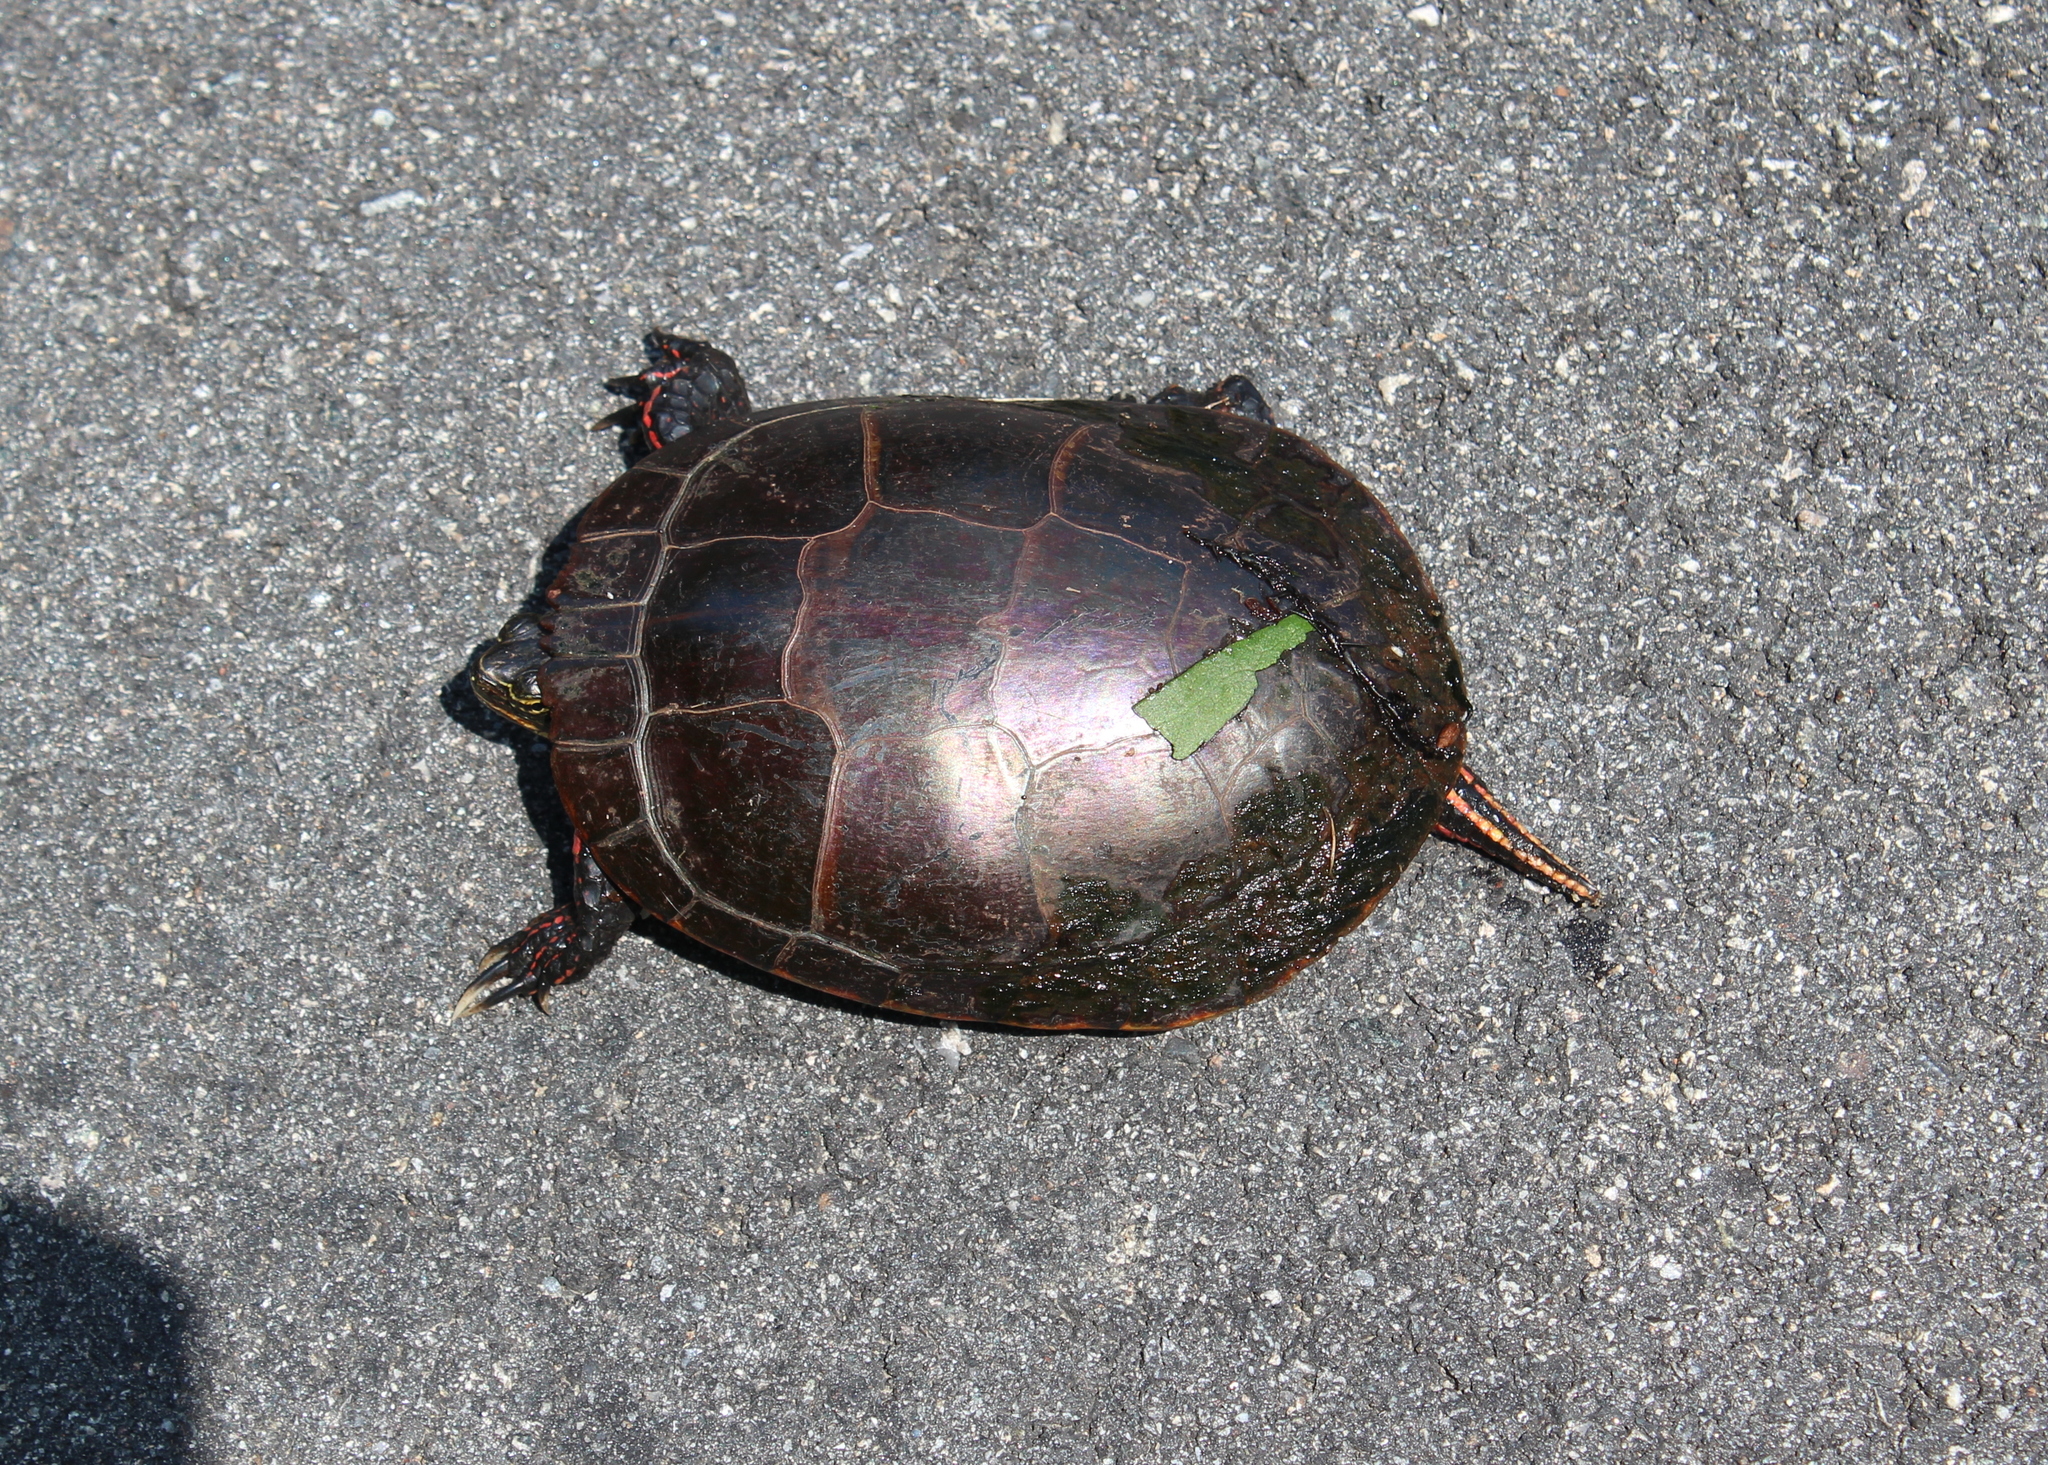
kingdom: Animalia
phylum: Chordata
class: Testudines
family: Emydidae
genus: Chrysemys
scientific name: Chrysemys picta
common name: Painted turtle
